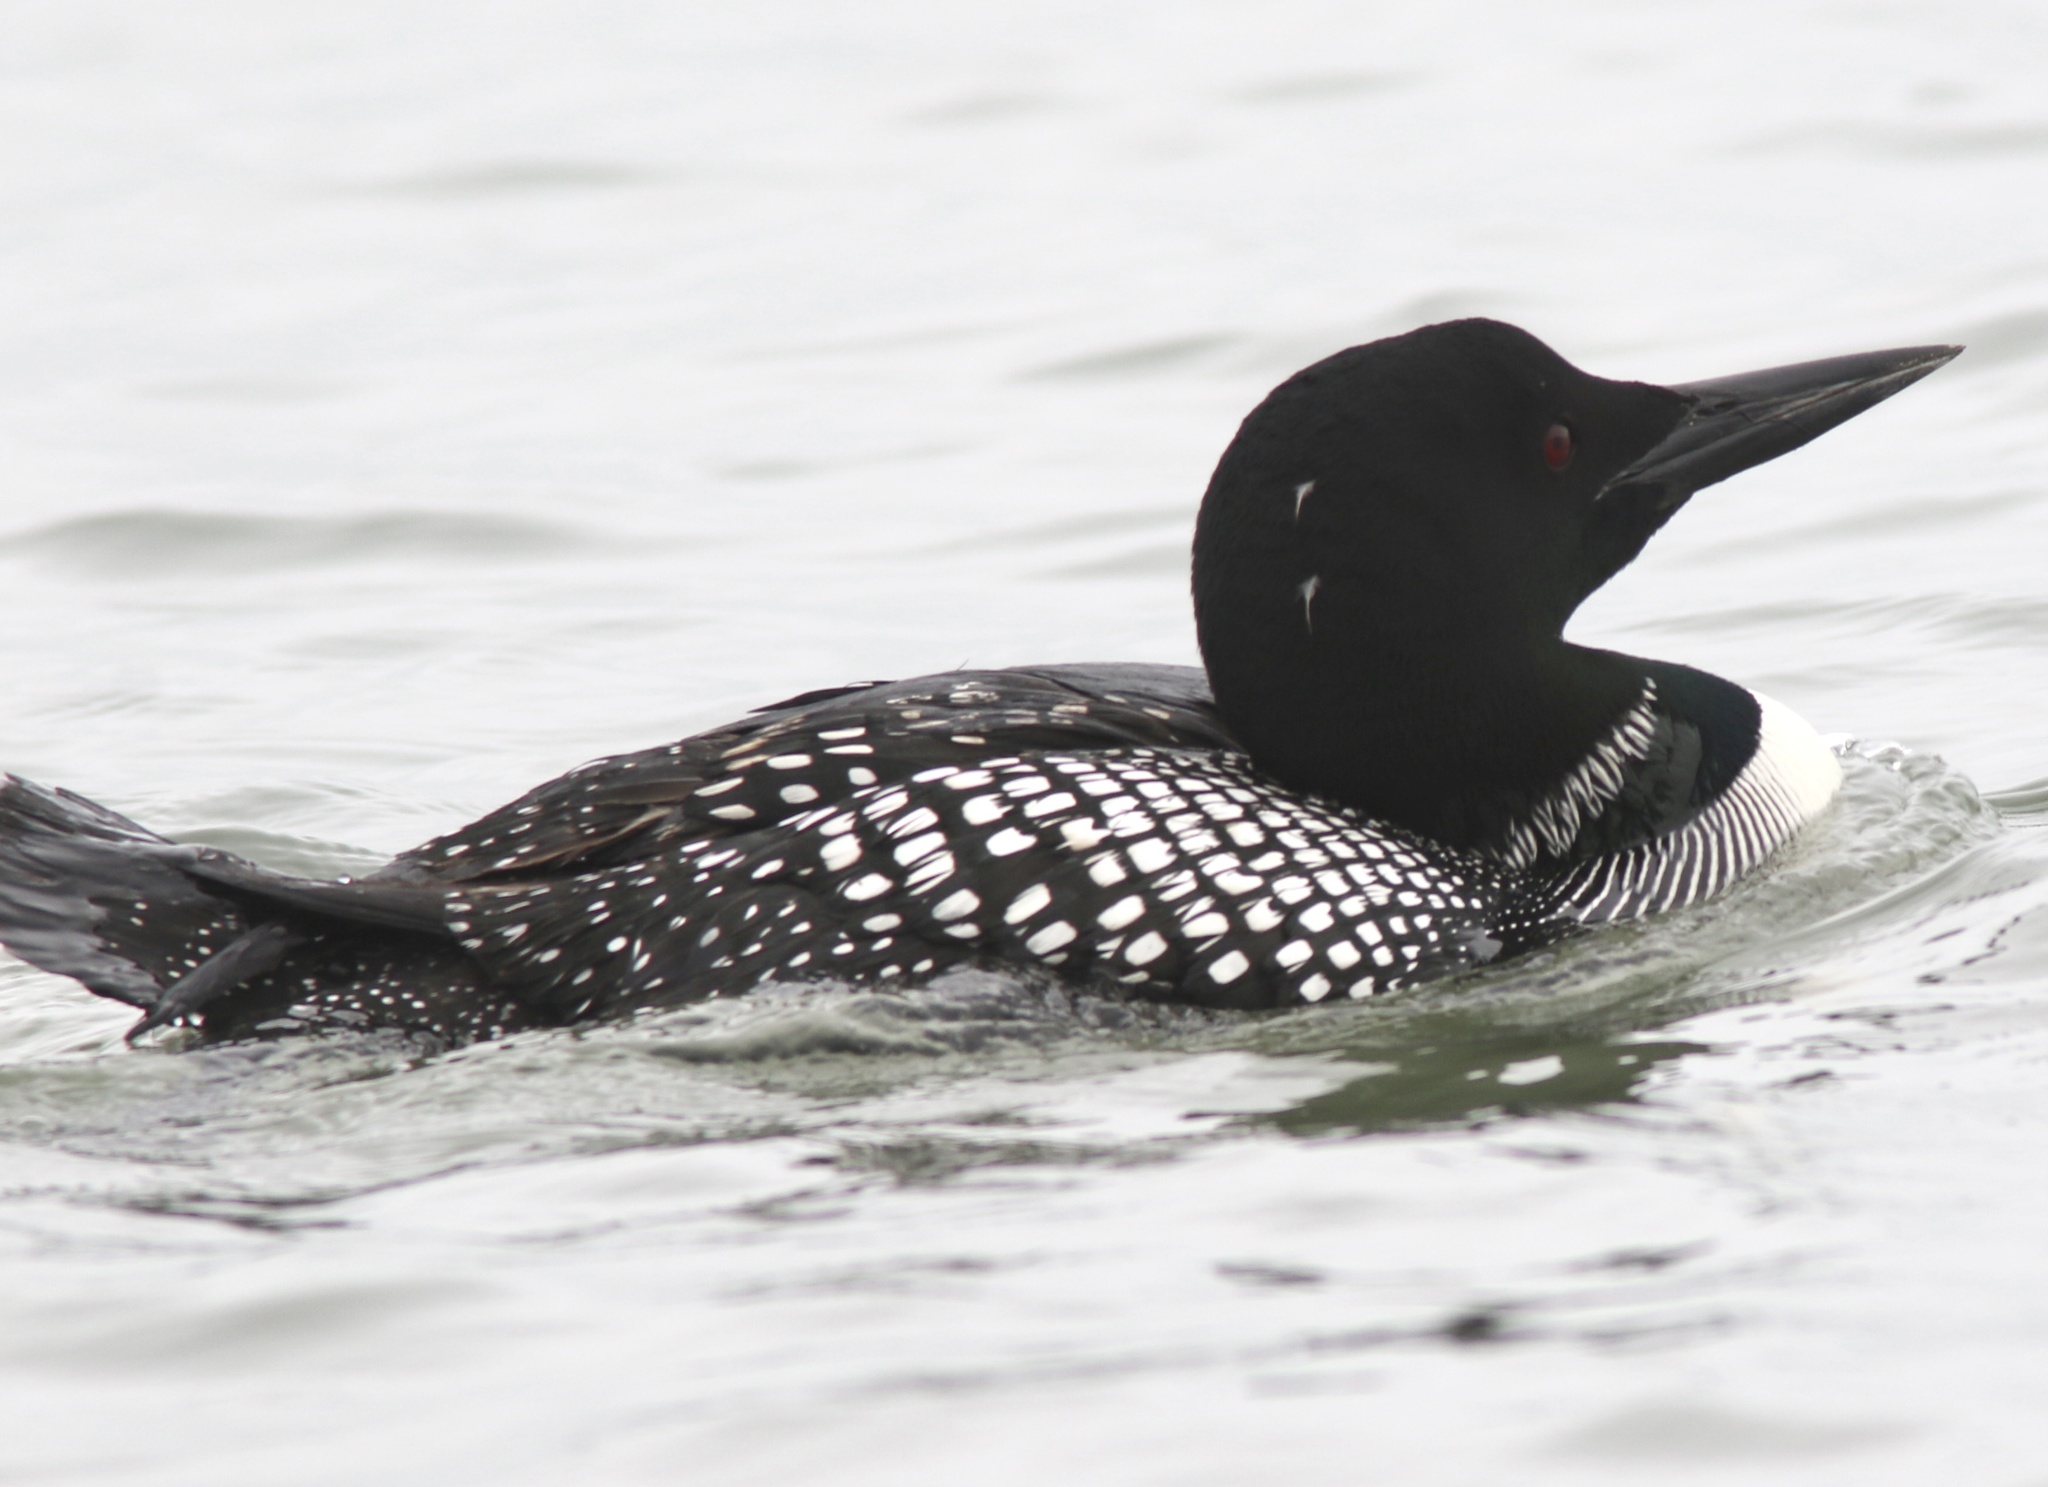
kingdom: Animalia
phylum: Chordata
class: Aves
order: Gaviiformes
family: Gaviidae
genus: Gavia
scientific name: Gavia immer
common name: Common loon
